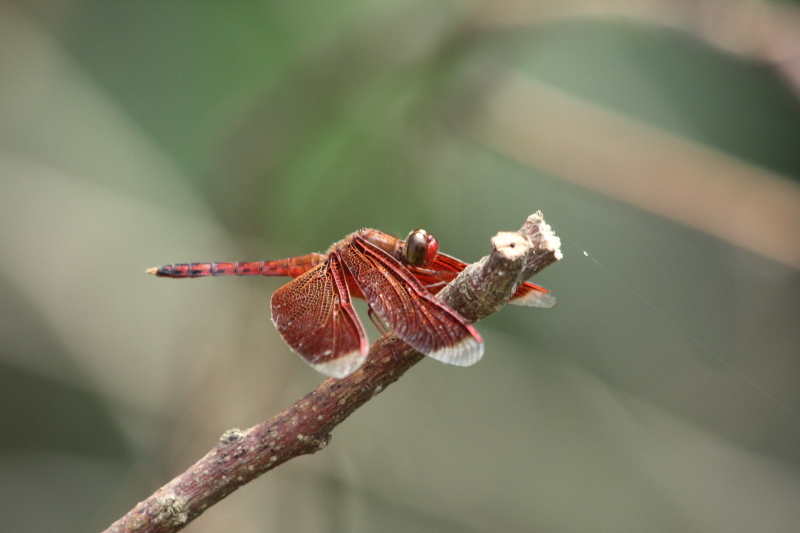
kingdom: Animalia
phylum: Arthropoda
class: Insecta
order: Odonata
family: Libellulidae
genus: Neurothemis
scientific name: Neurothemis terminata
